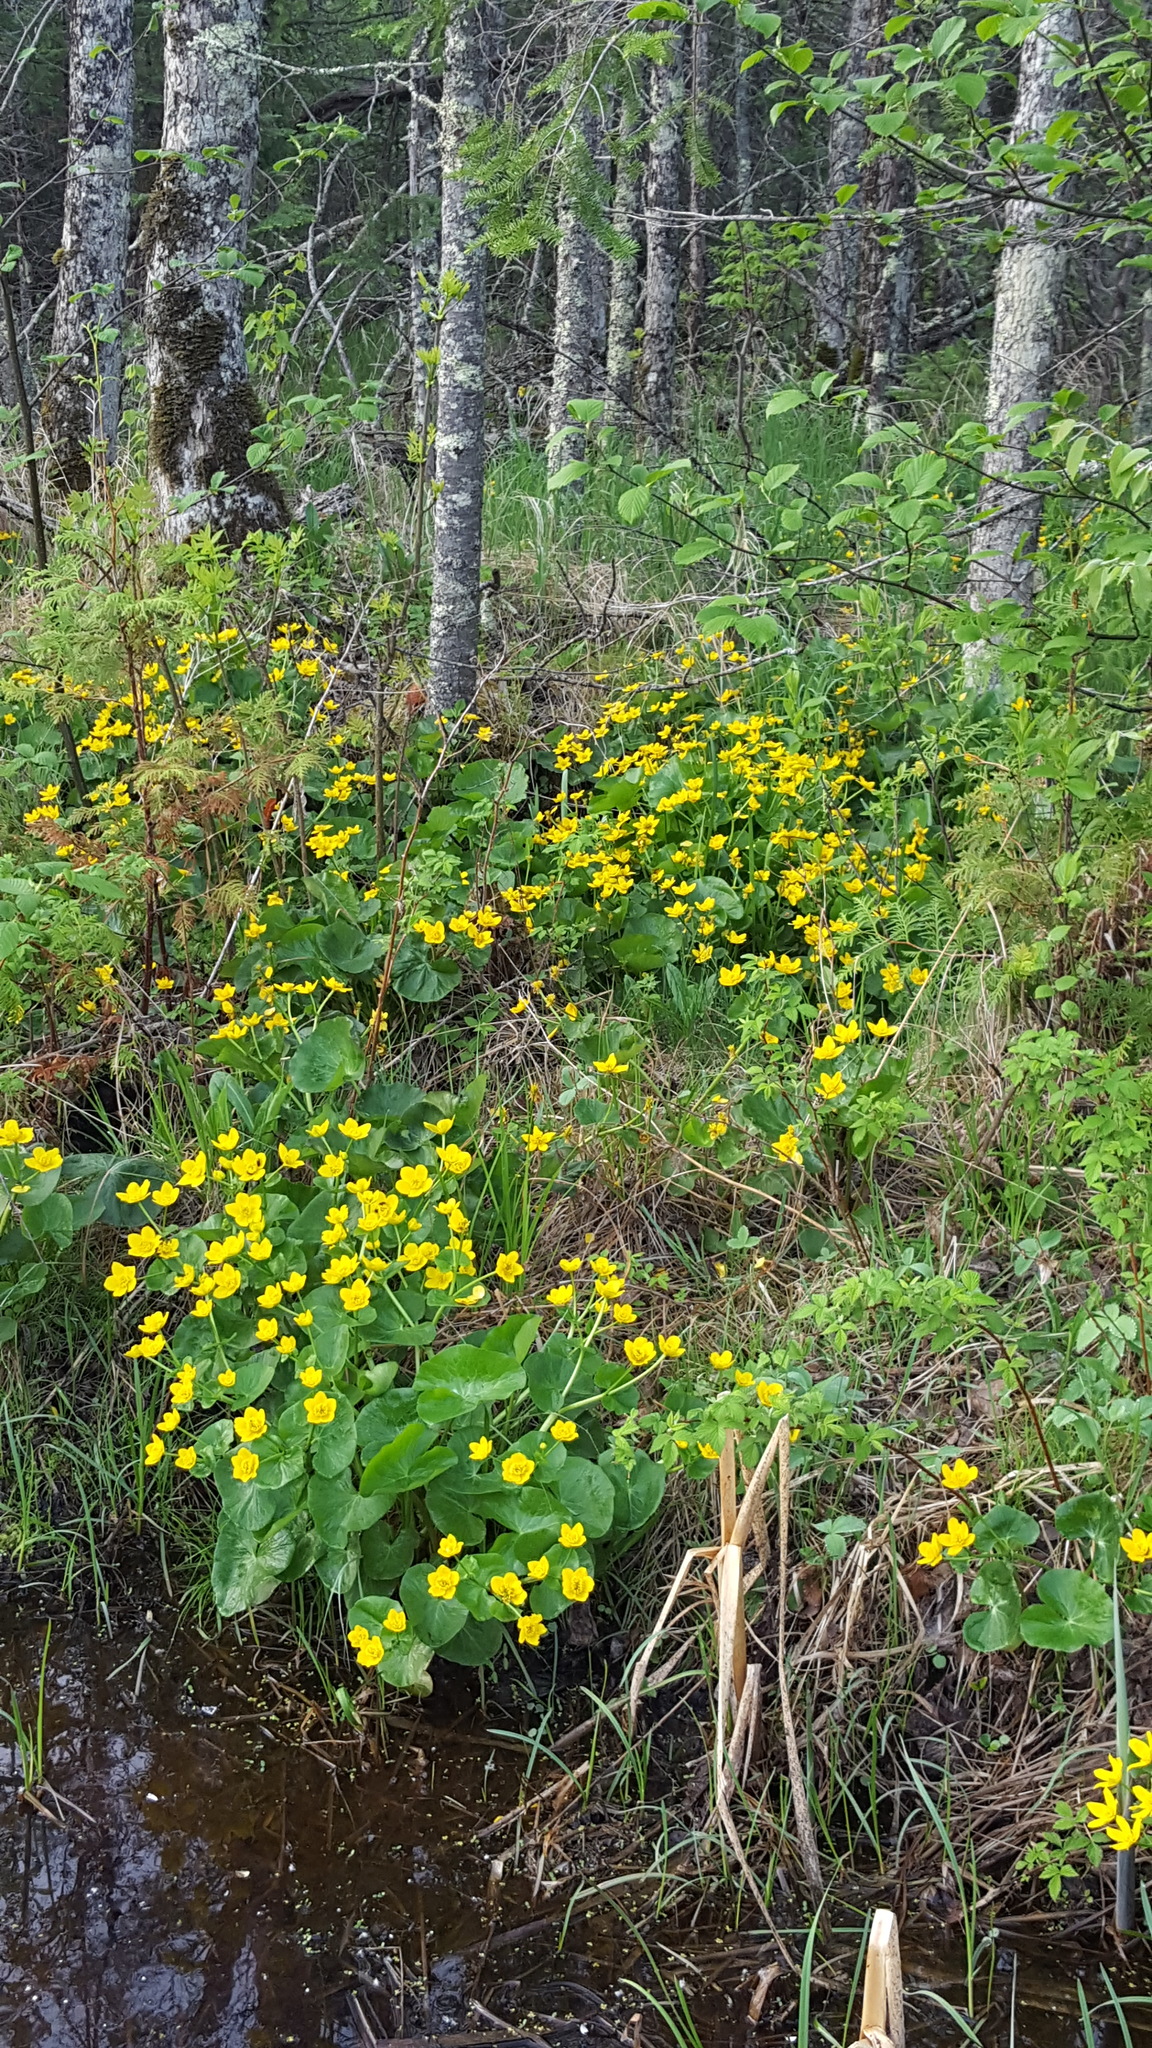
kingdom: Plantae
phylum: Tracheophyta
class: Magnoliopsida
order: Ranunculales
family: Ranunculaceae
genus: Caltha
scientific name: Caltha palustris
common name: Marsh marigold
